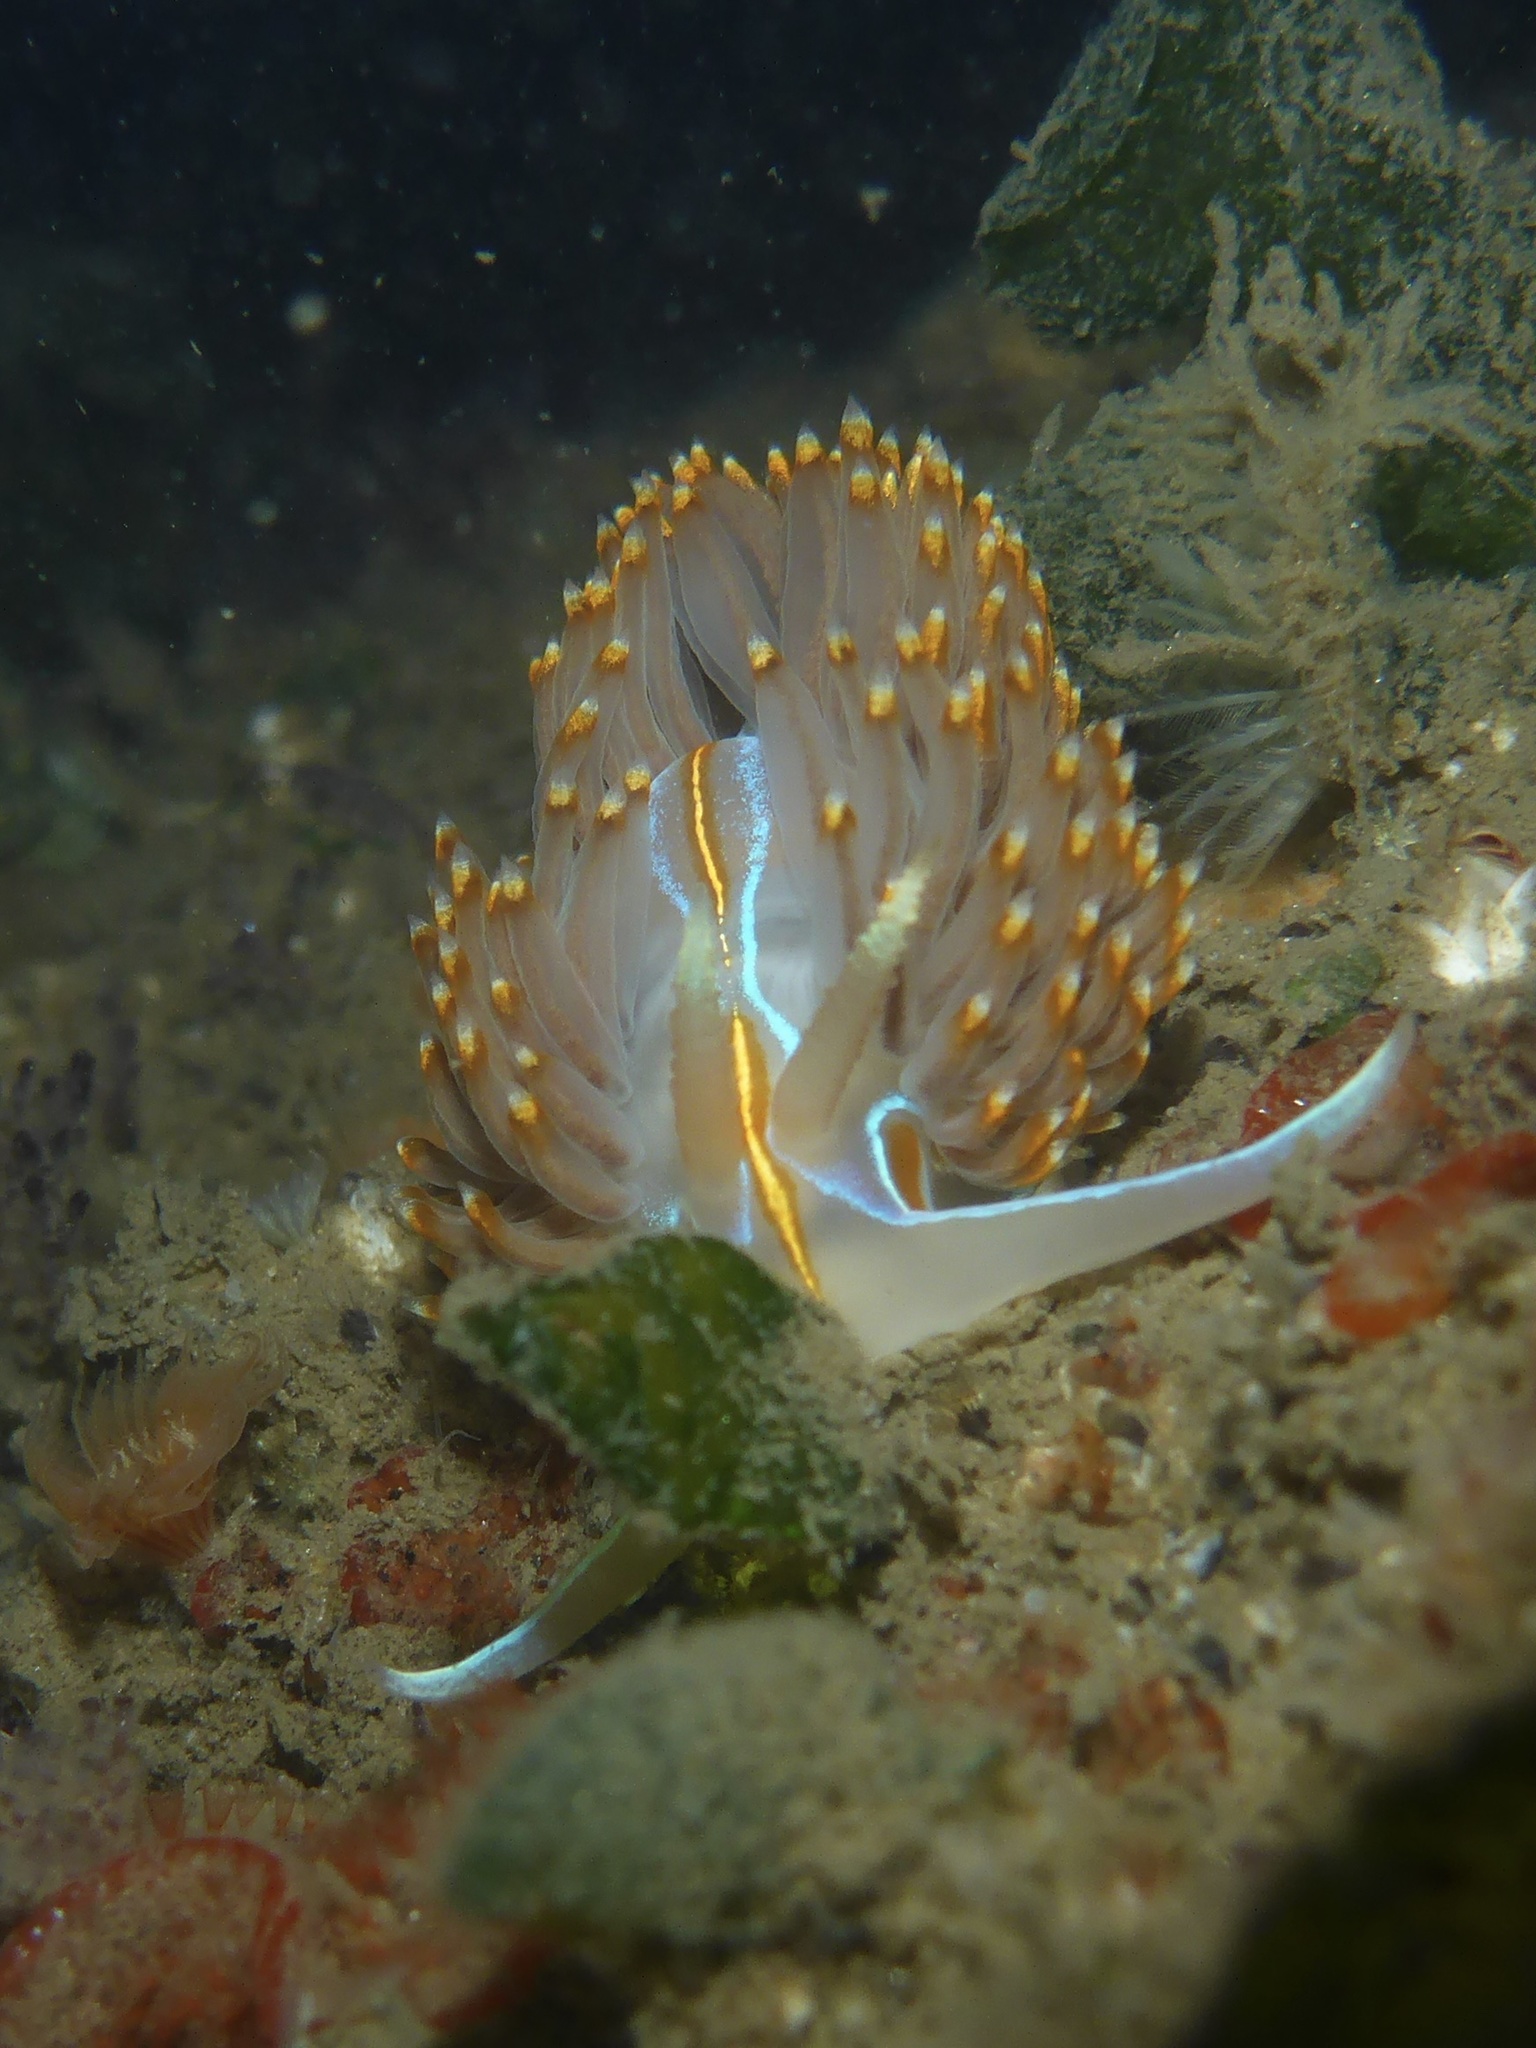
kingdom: Animalia
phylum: Mollusca
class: Gastropoda
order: Nudibranchia
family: Myrrhinidae
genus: Hermissenda
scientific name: Hermissenda opalescens
